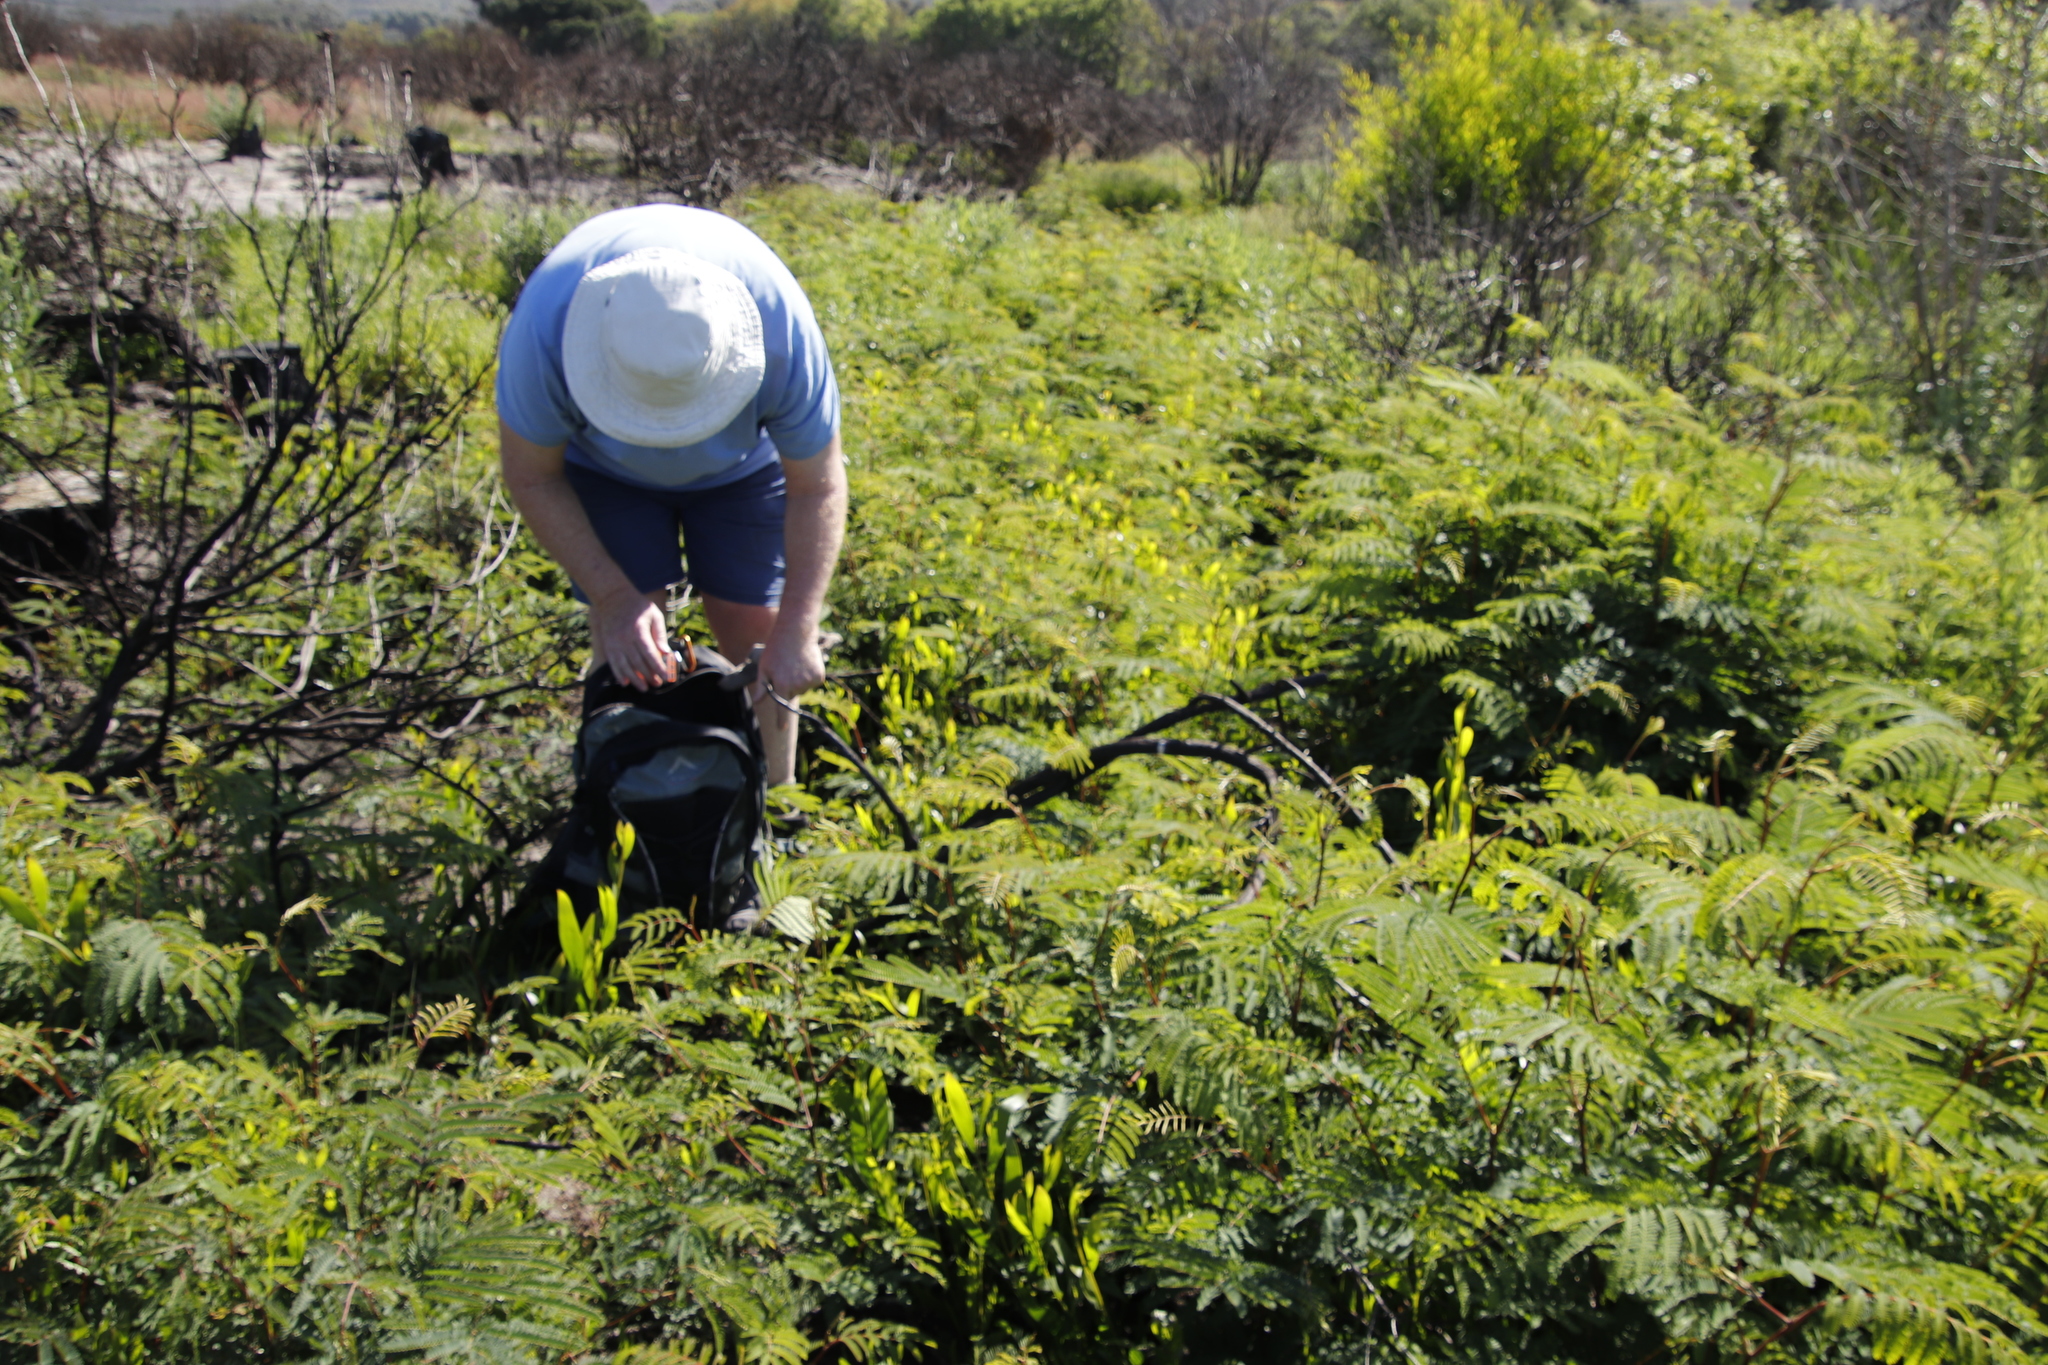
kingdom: Plantae
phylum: Tracheophyta
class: Magnoliopsida
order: Fabales
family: Fabaceae
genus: Paraserianthes
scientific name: Paraserianthes lophantha
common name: Plume albizia
